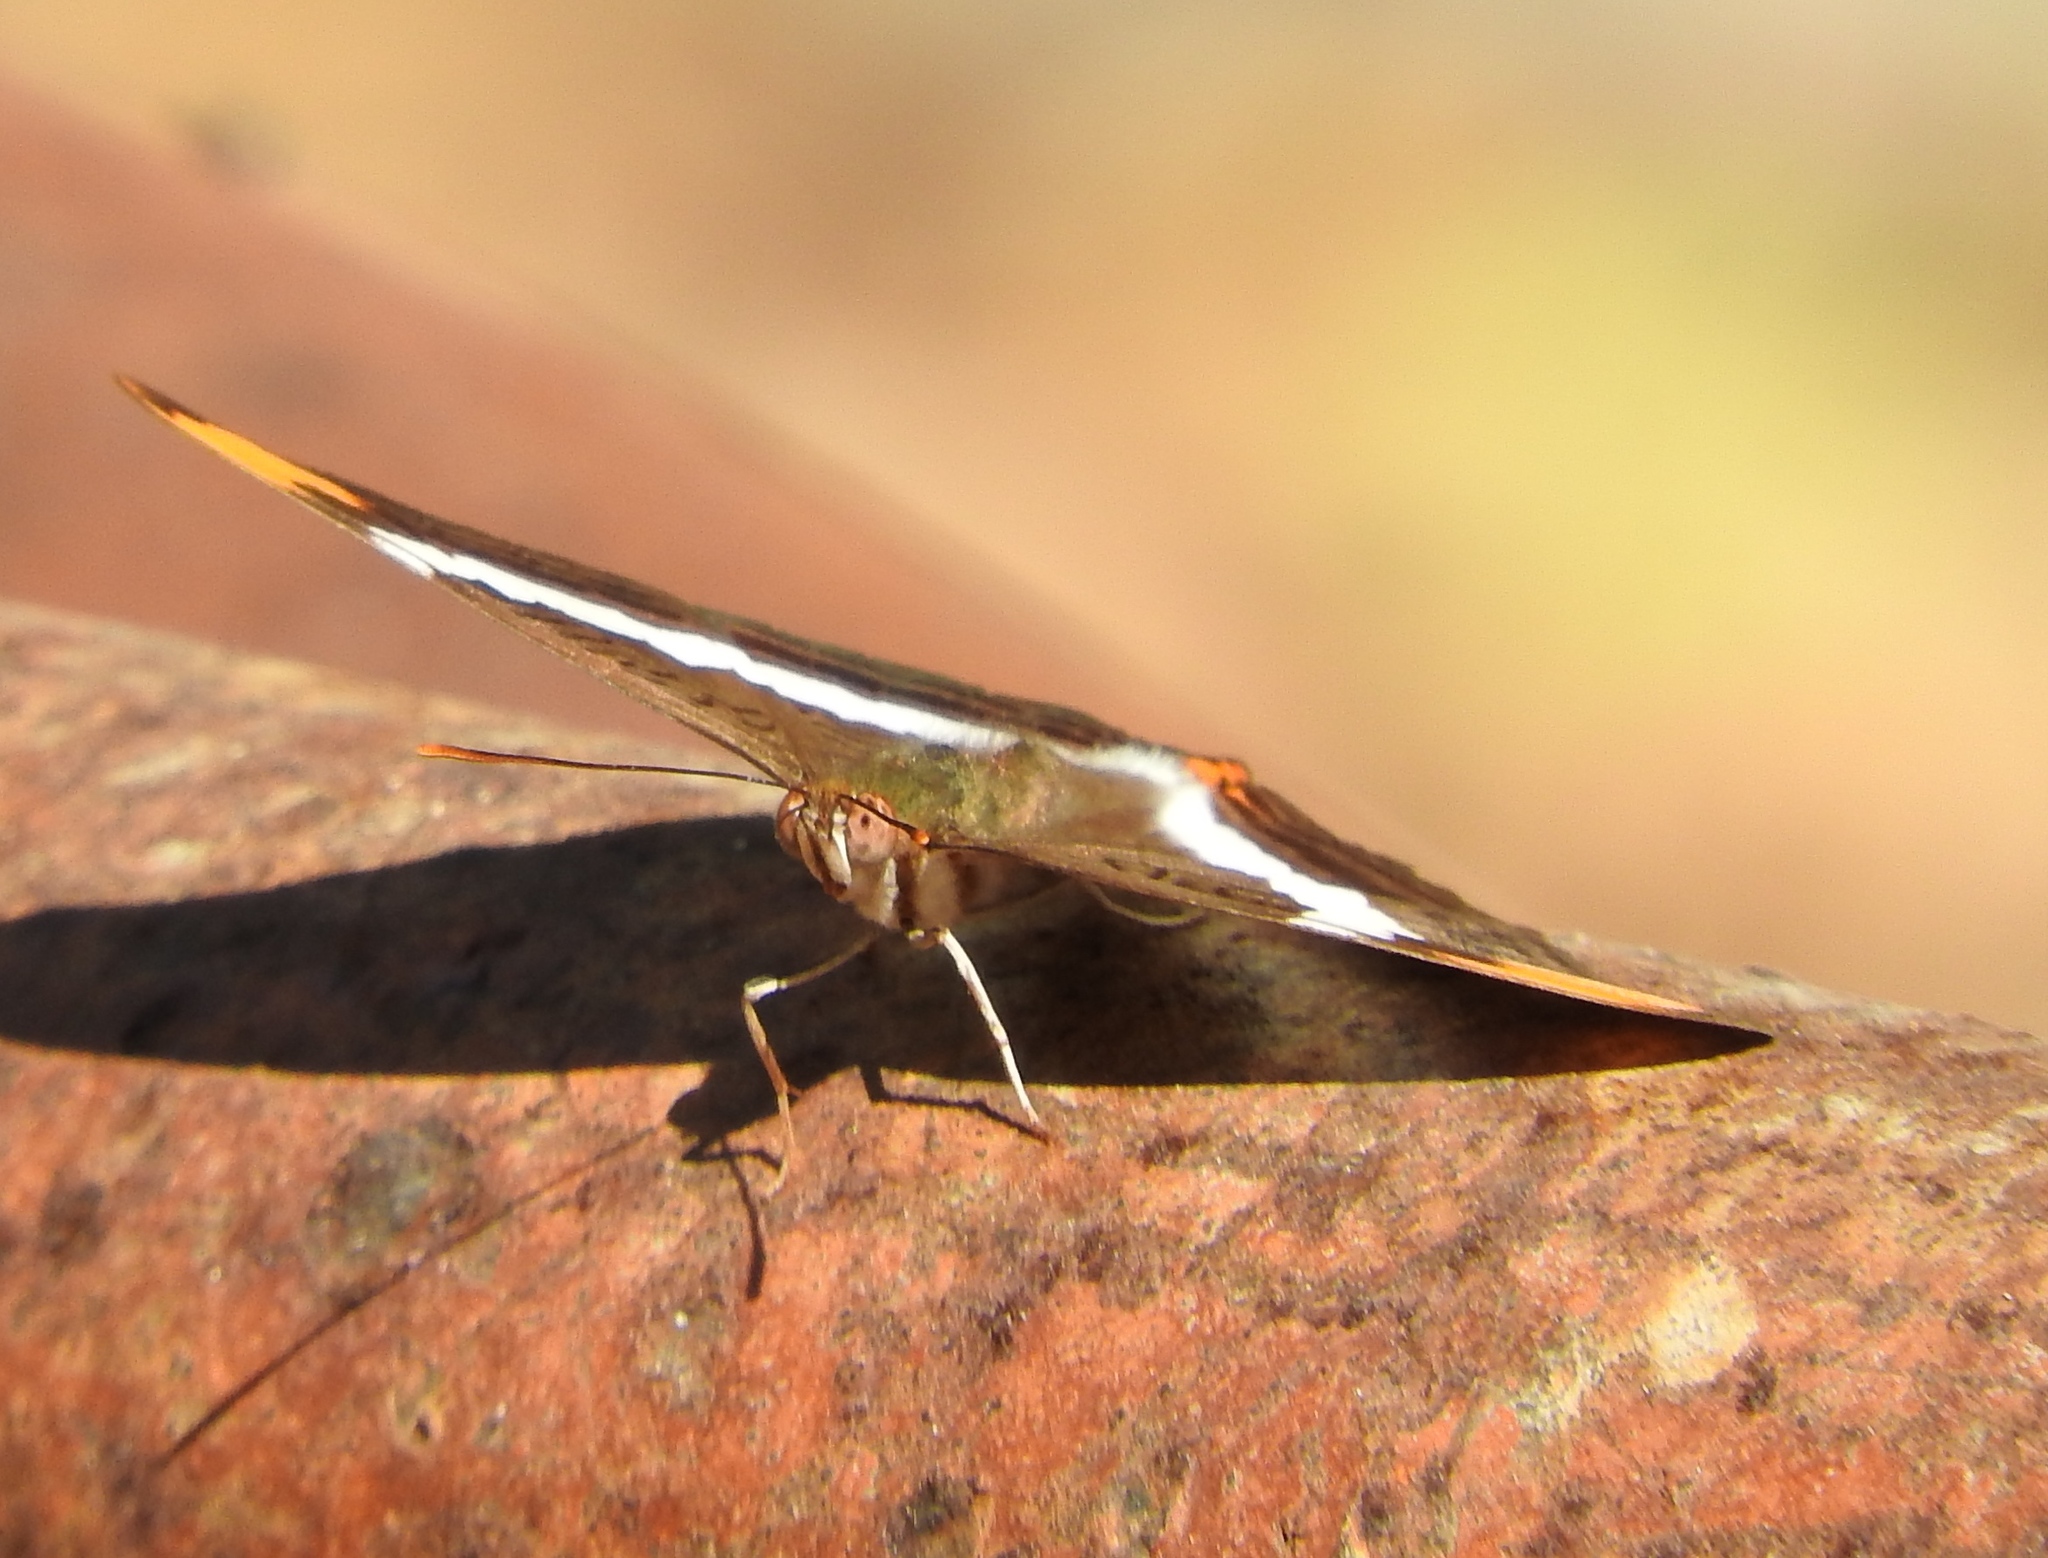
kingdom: Animalia
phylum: Arthropoda
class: Insecta
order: Lepidoptera
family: Nymphalidae
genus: Limenitis
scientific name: Limenitis
